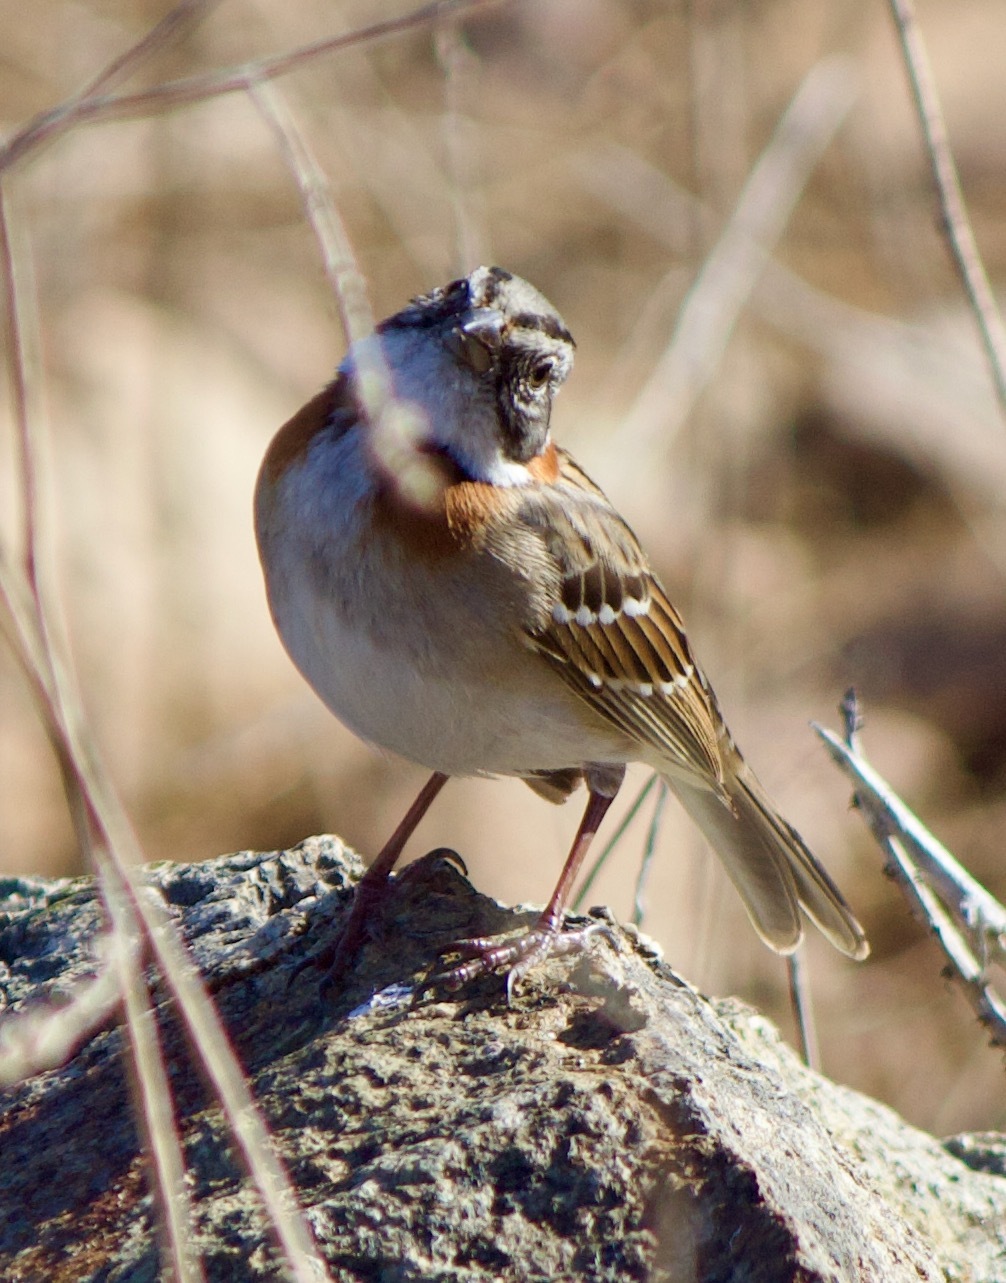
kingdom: Animalia
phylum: Chordata
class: Aves
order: Passeriformes
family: Passerellidae
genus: Zonotrichia
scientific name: Zonotrichia capensis
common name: Rufous-collared sparrow
